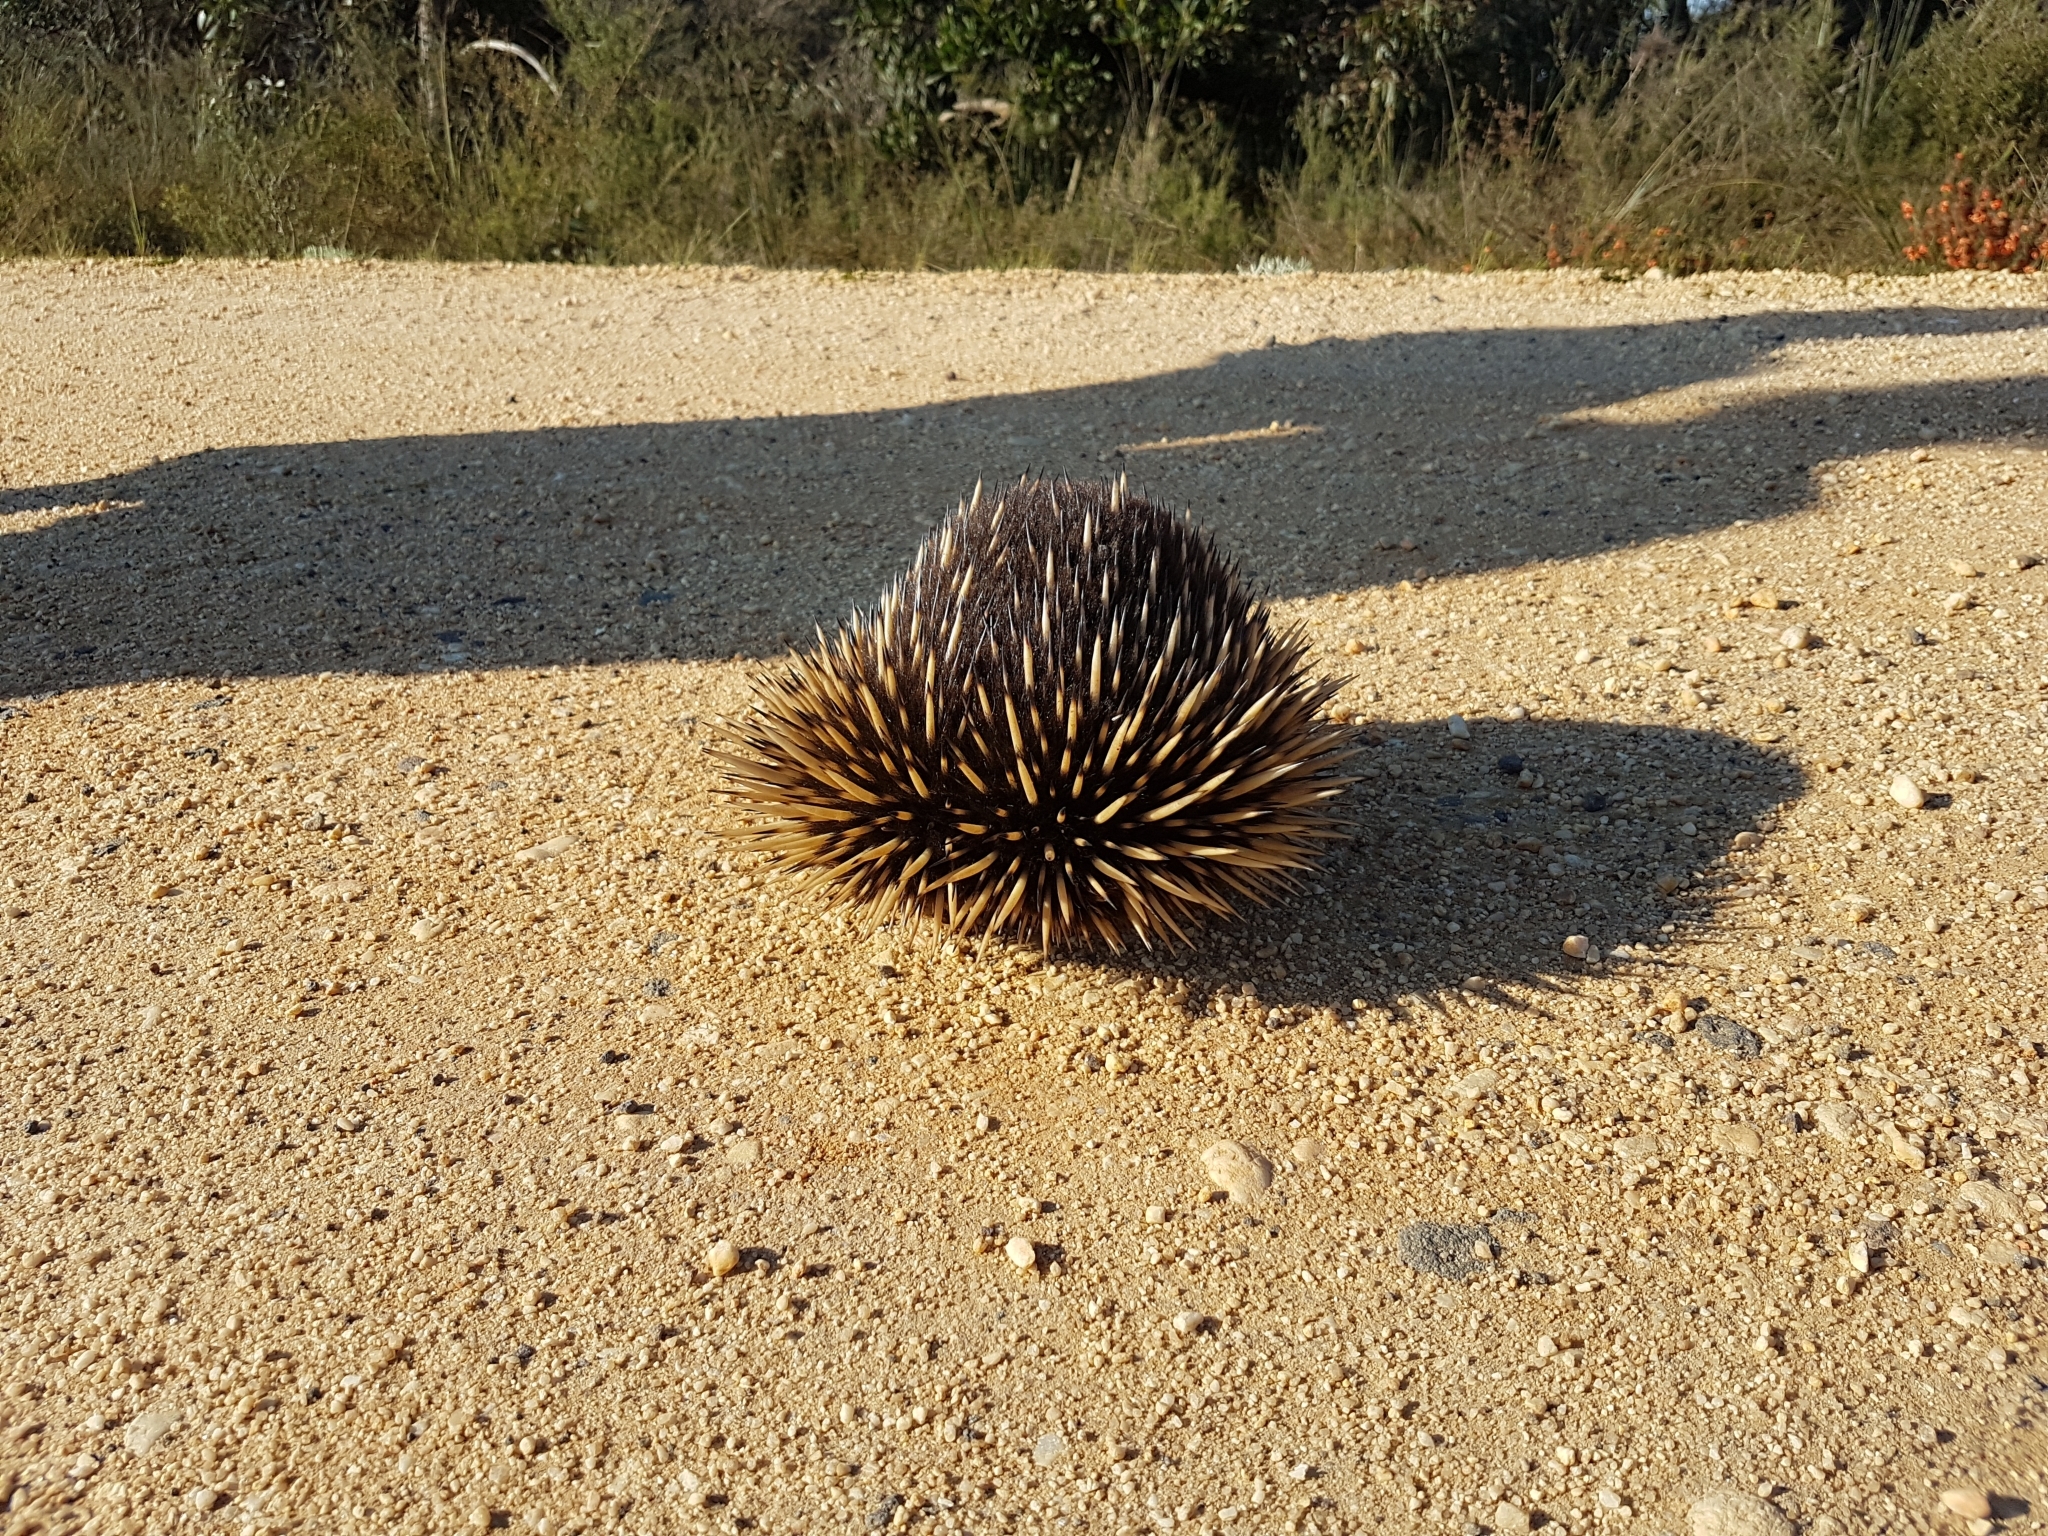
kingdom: Animalia
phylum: Chordata
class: Mammalia
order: Monotremata
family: Tachyglossidae
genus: Tachyglossus
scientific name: Tachyglossus aculeatus
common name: Short-beaked echidna
